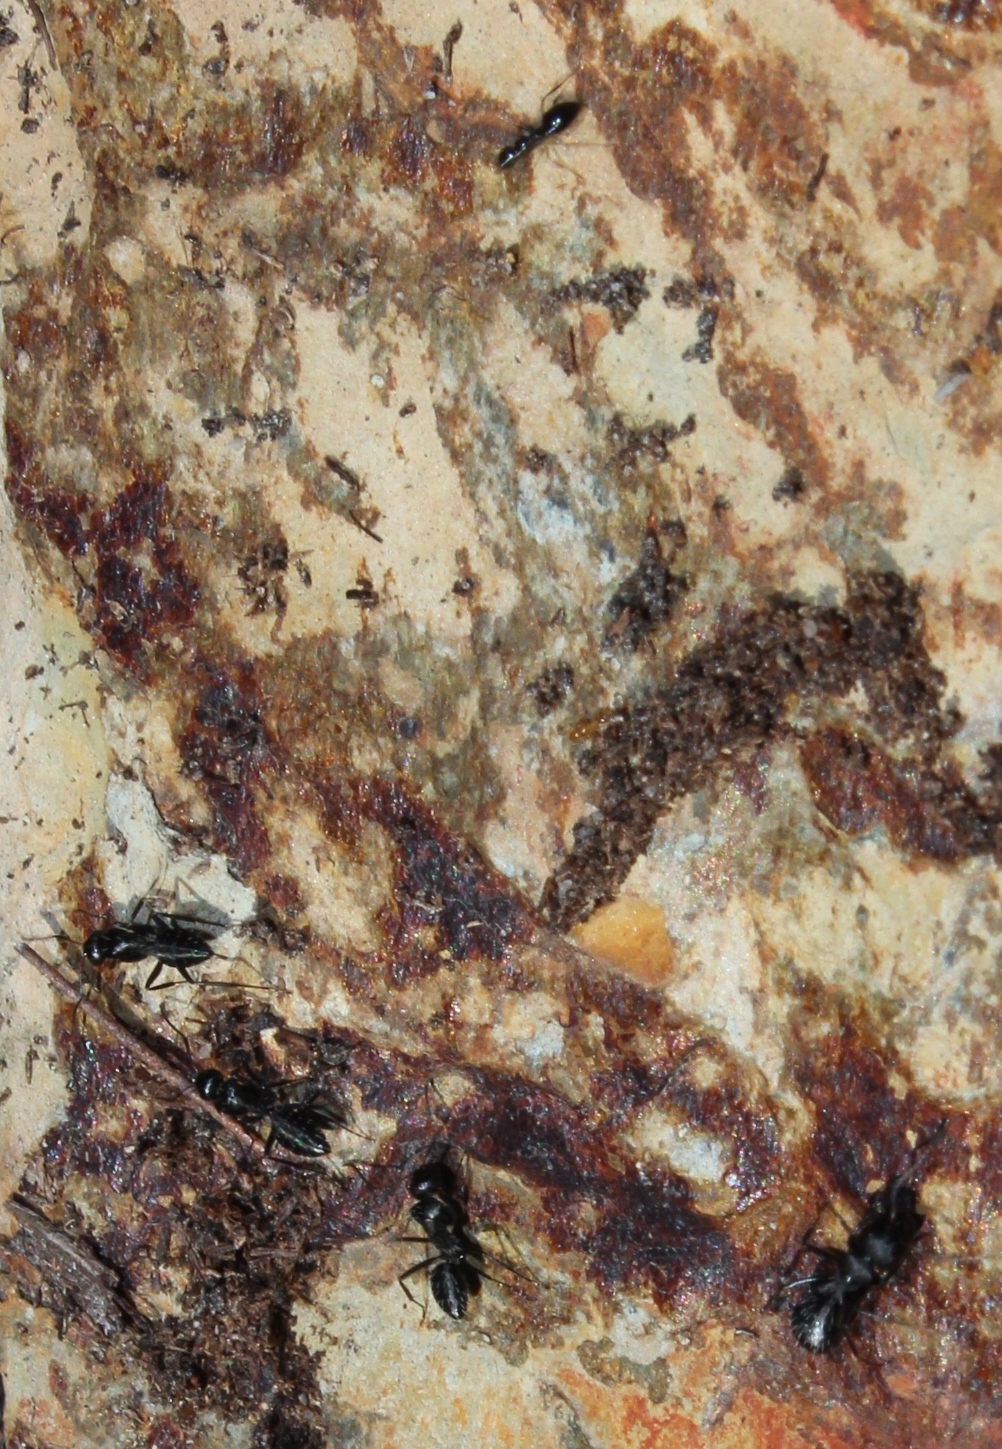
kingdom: Animalia
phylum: Arthropoda
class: Insecta
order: Hymenoptera
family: Formicidae
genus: Camponotus
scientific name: Camponotus niveosetosus
